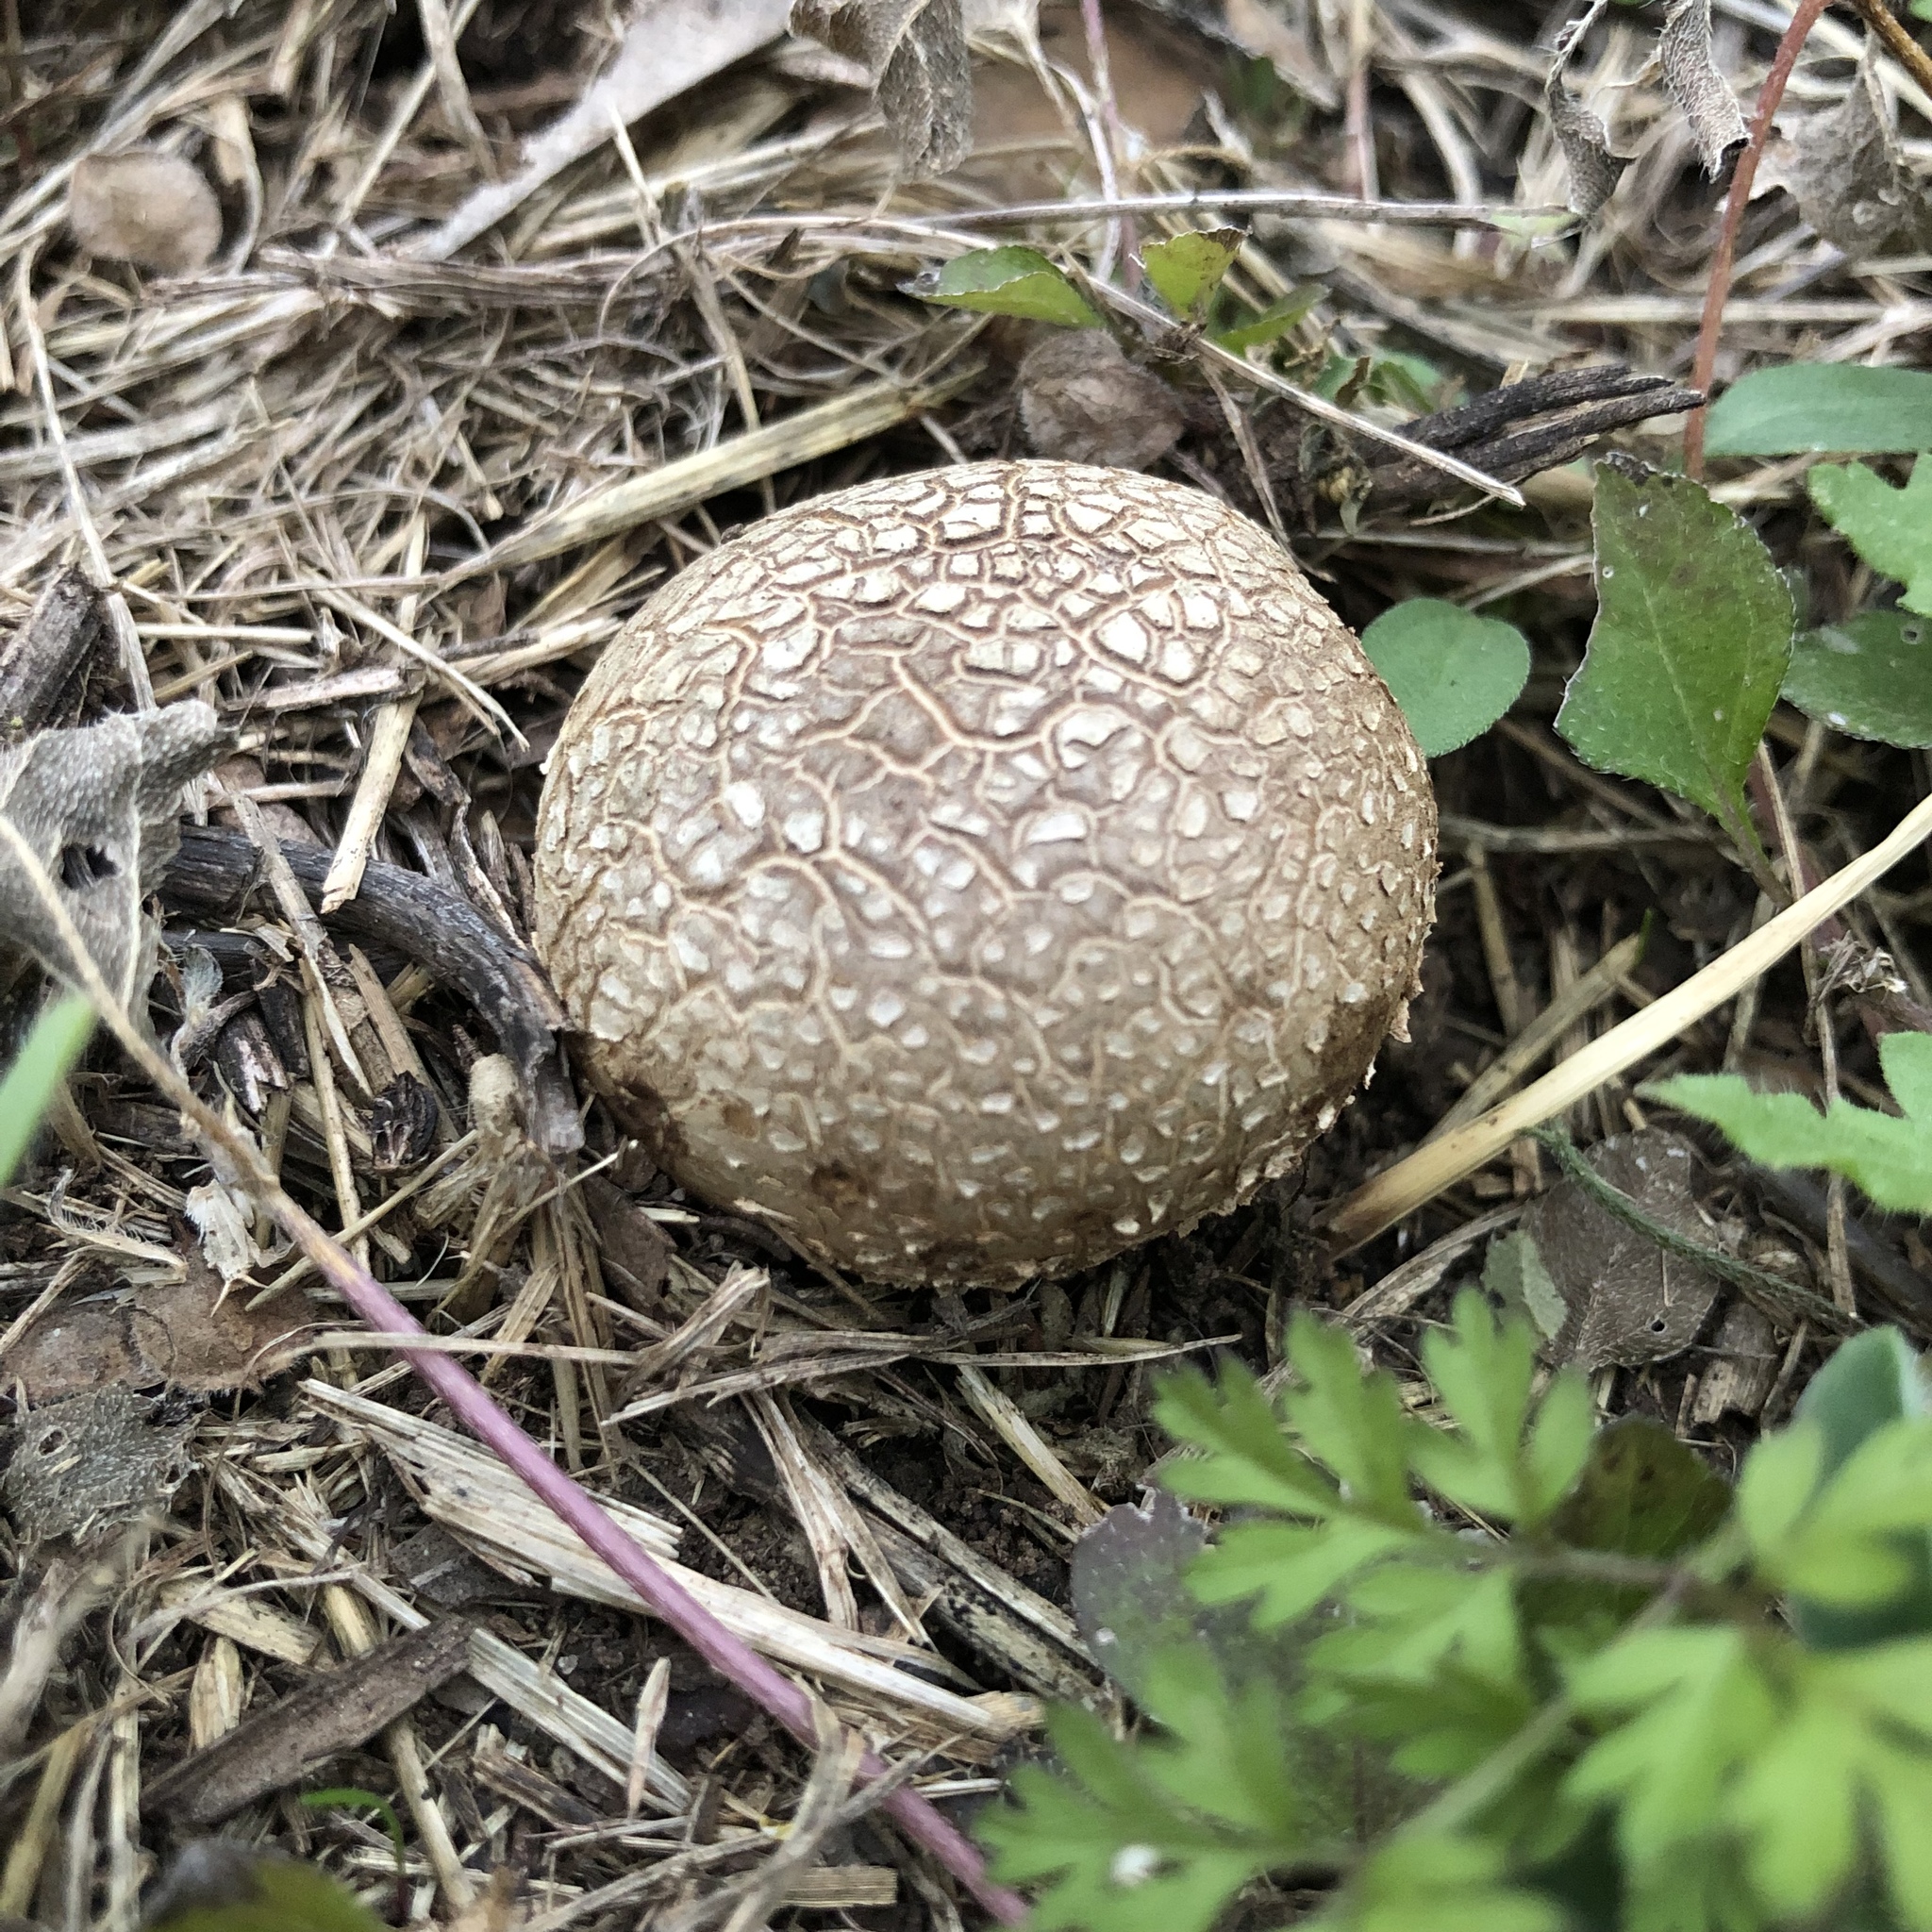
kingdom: Fungi
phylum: Basidiomycota
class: Agaricomycetes
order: Boletales
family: Sclerodermataceae
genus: Scleroderma
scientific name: Scleroderma citrinum
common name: Common earthball
